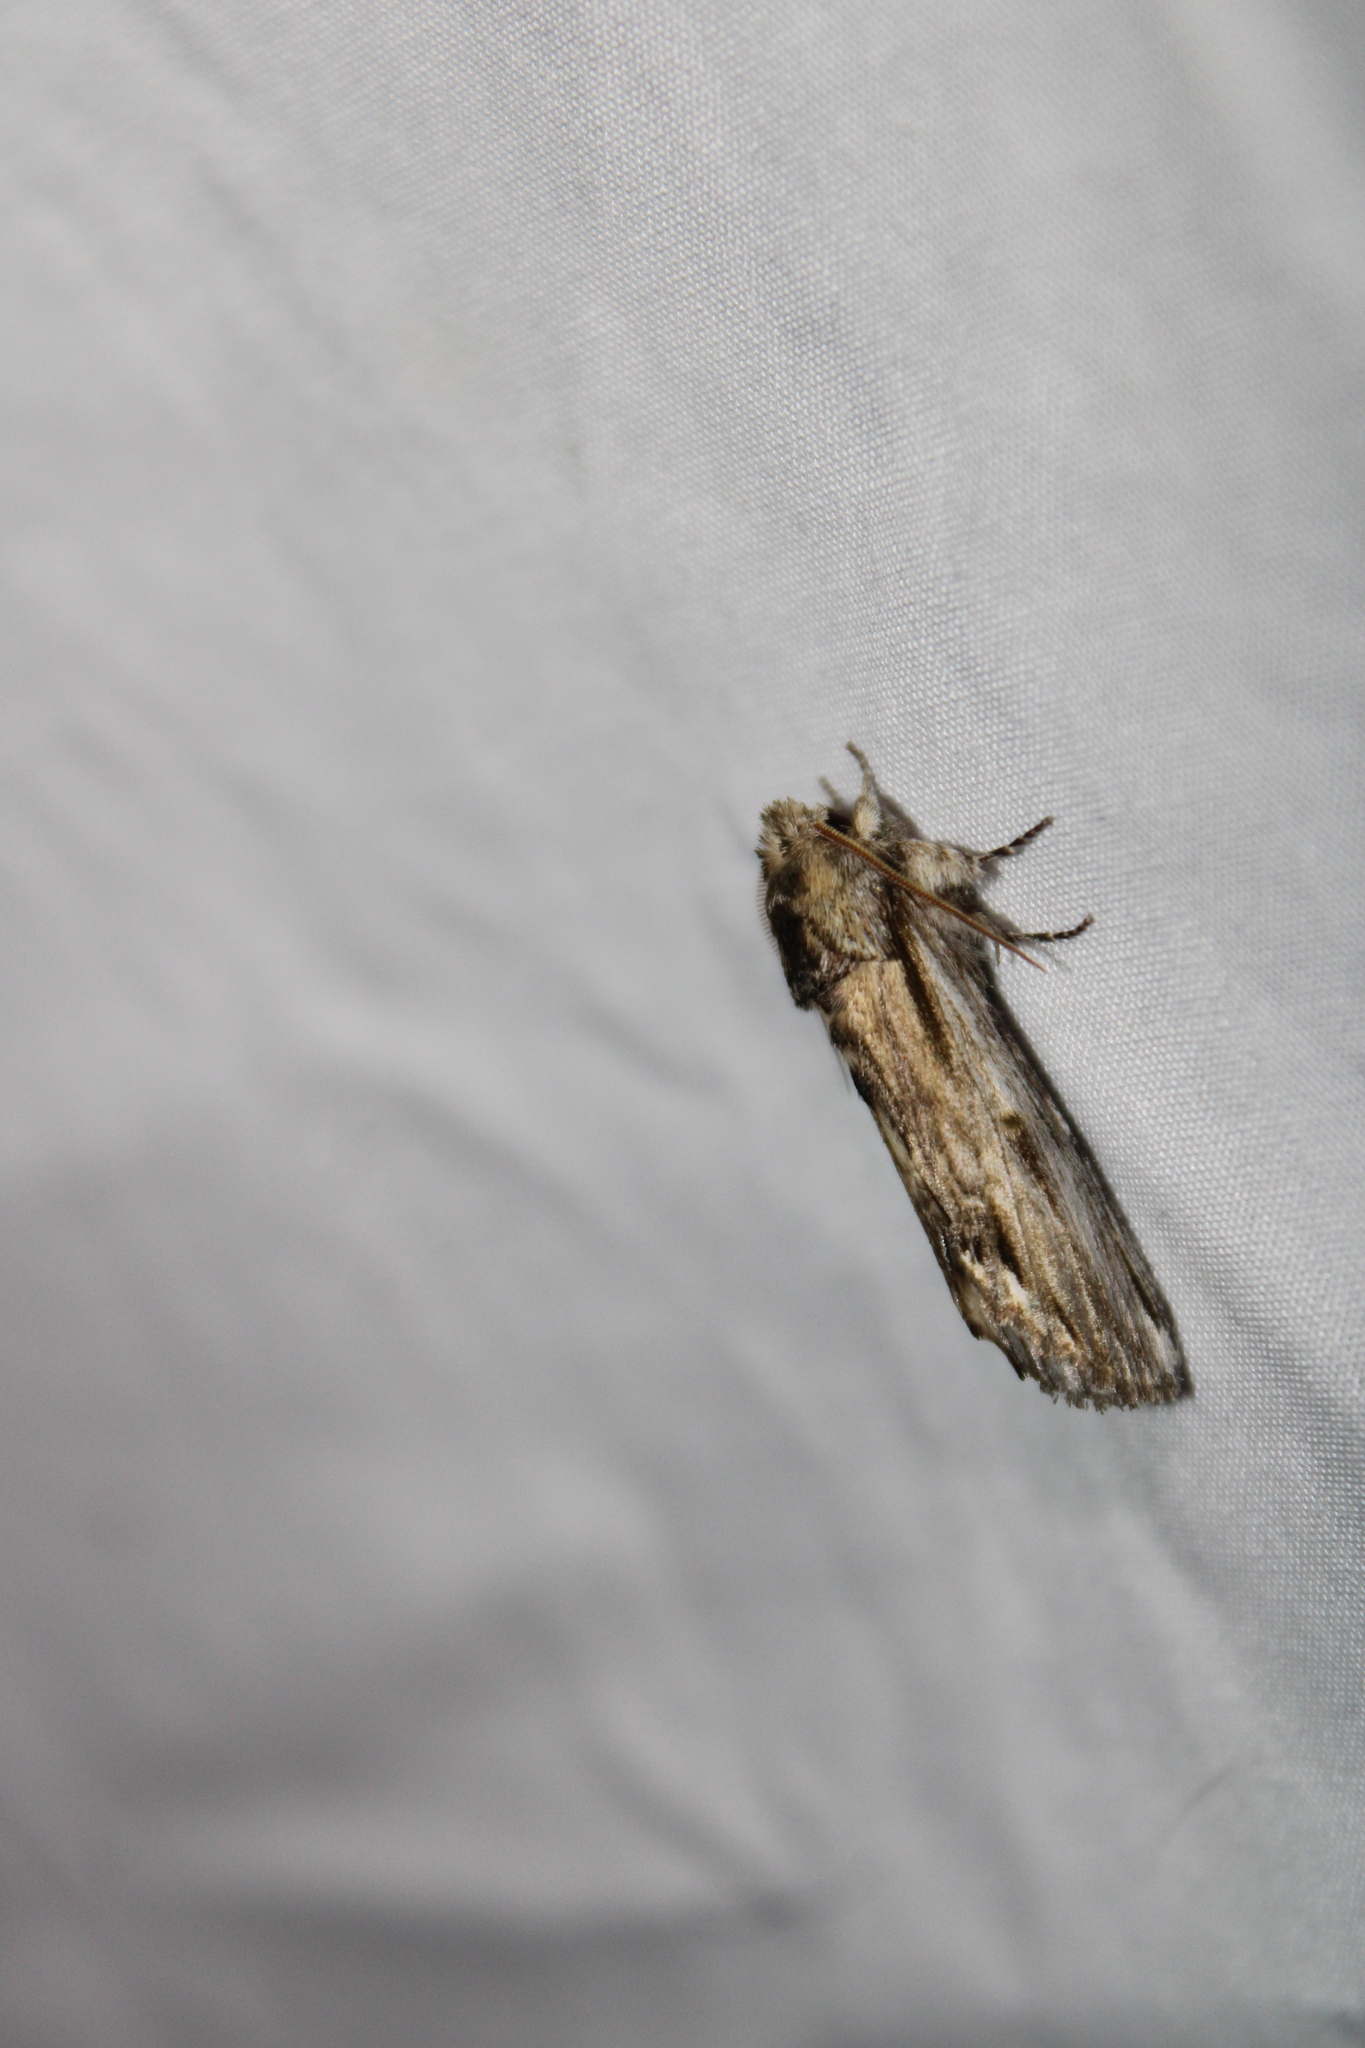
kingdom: Animalia
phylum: Arthropoda
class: Insecta
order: Lepidoptera
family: Notodontidae
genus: Oligocentria
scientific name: Oligocentria Ianassa lignicolor
